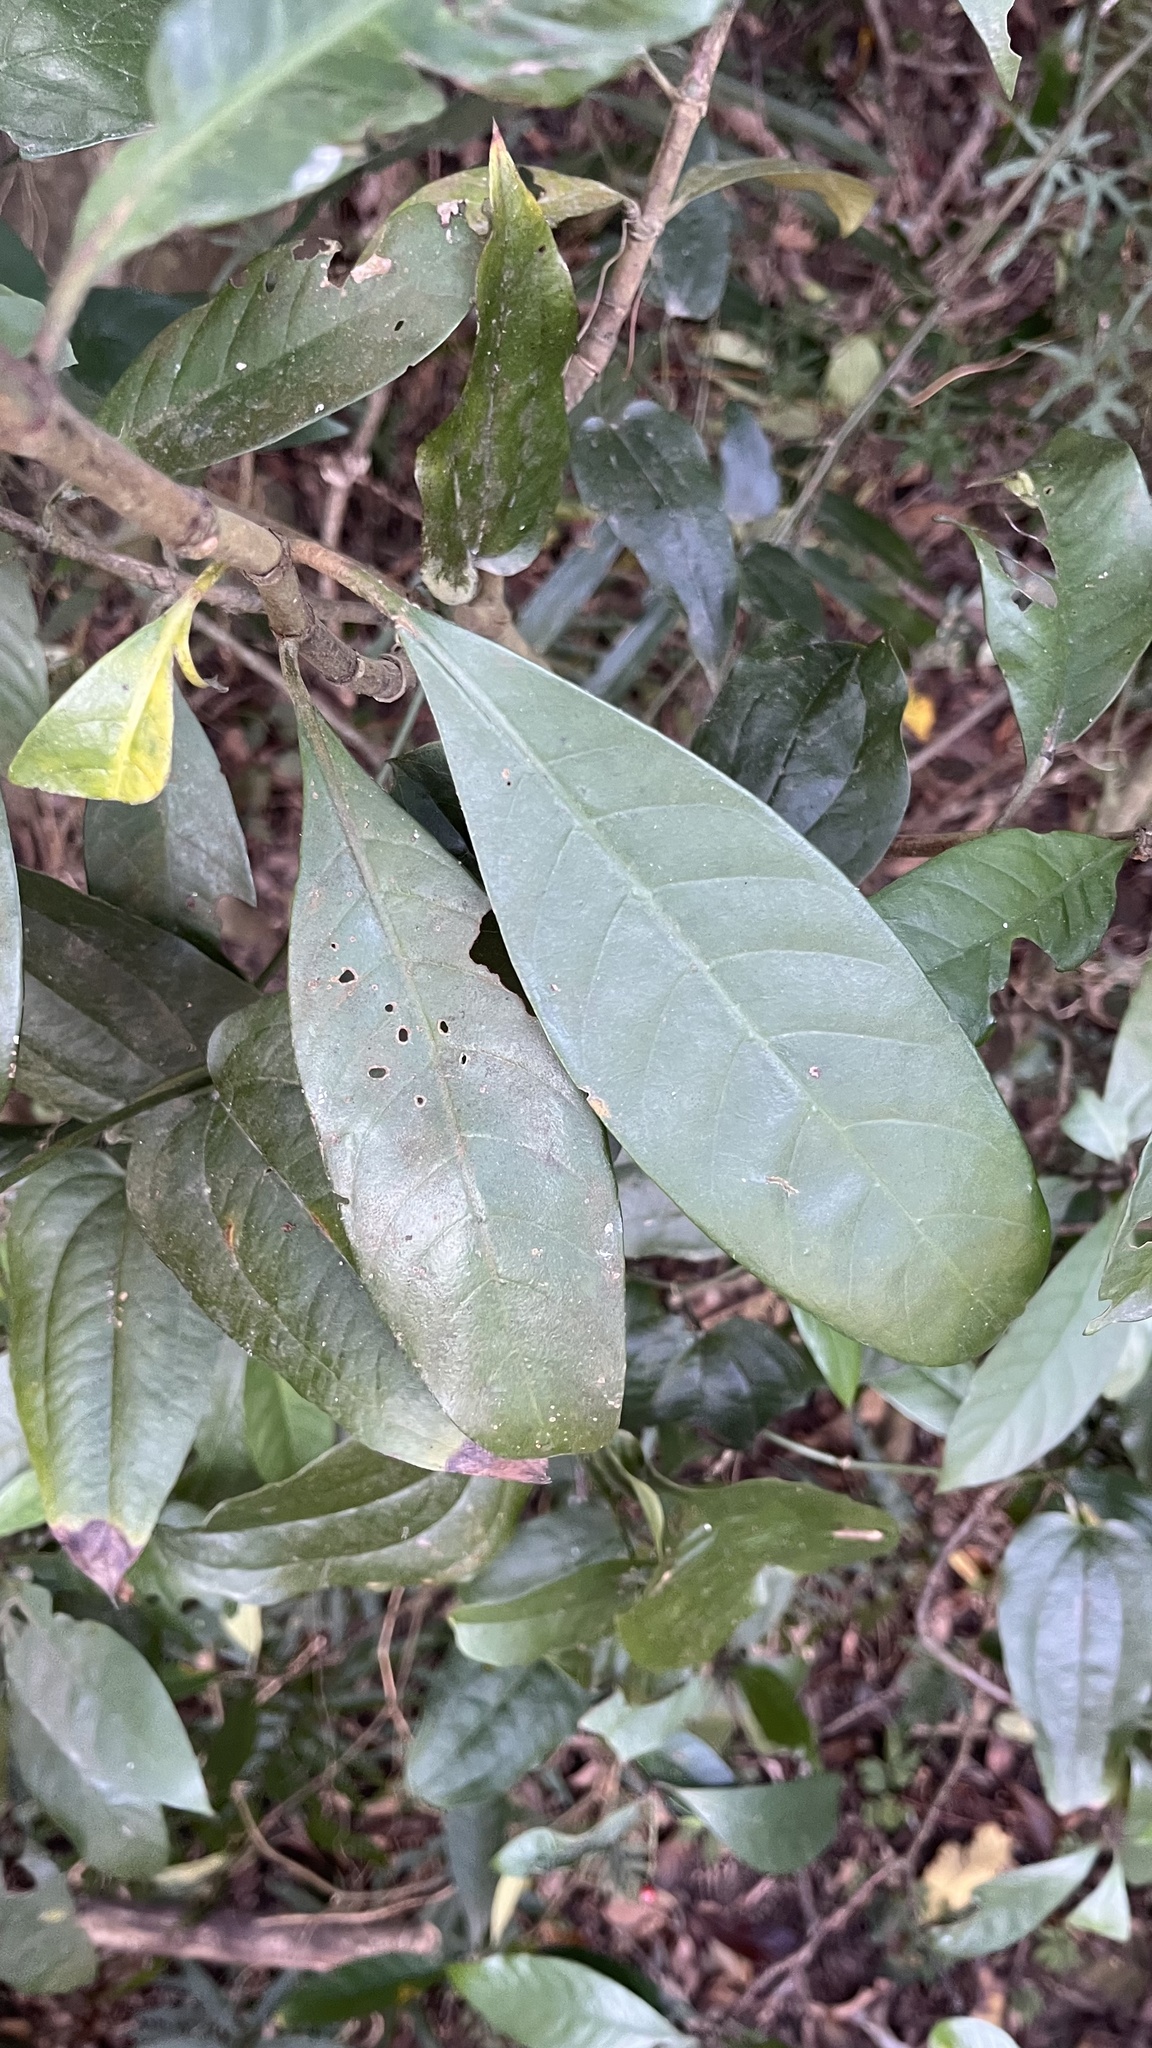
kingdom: Plantae
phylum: Tracheophyta
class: Magnoliopsida
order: Gentianales
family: Rubiaceae
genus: Psychotria
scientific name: Psychotria asiatica
